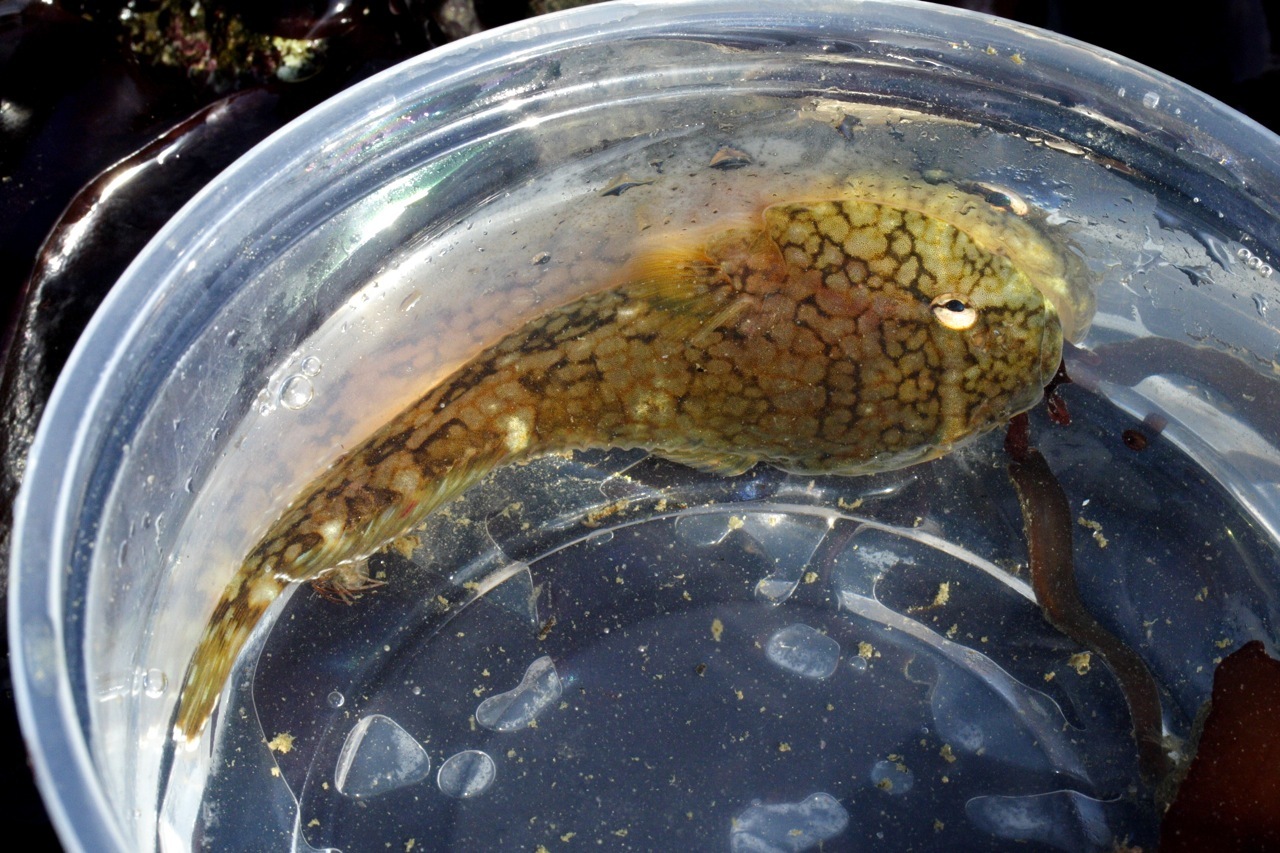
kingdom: Animalia
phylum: Chordata
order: Gobiesociformes
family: Gobiesocidae
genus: Gobiesox
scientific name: Gobiesox maeandricus
